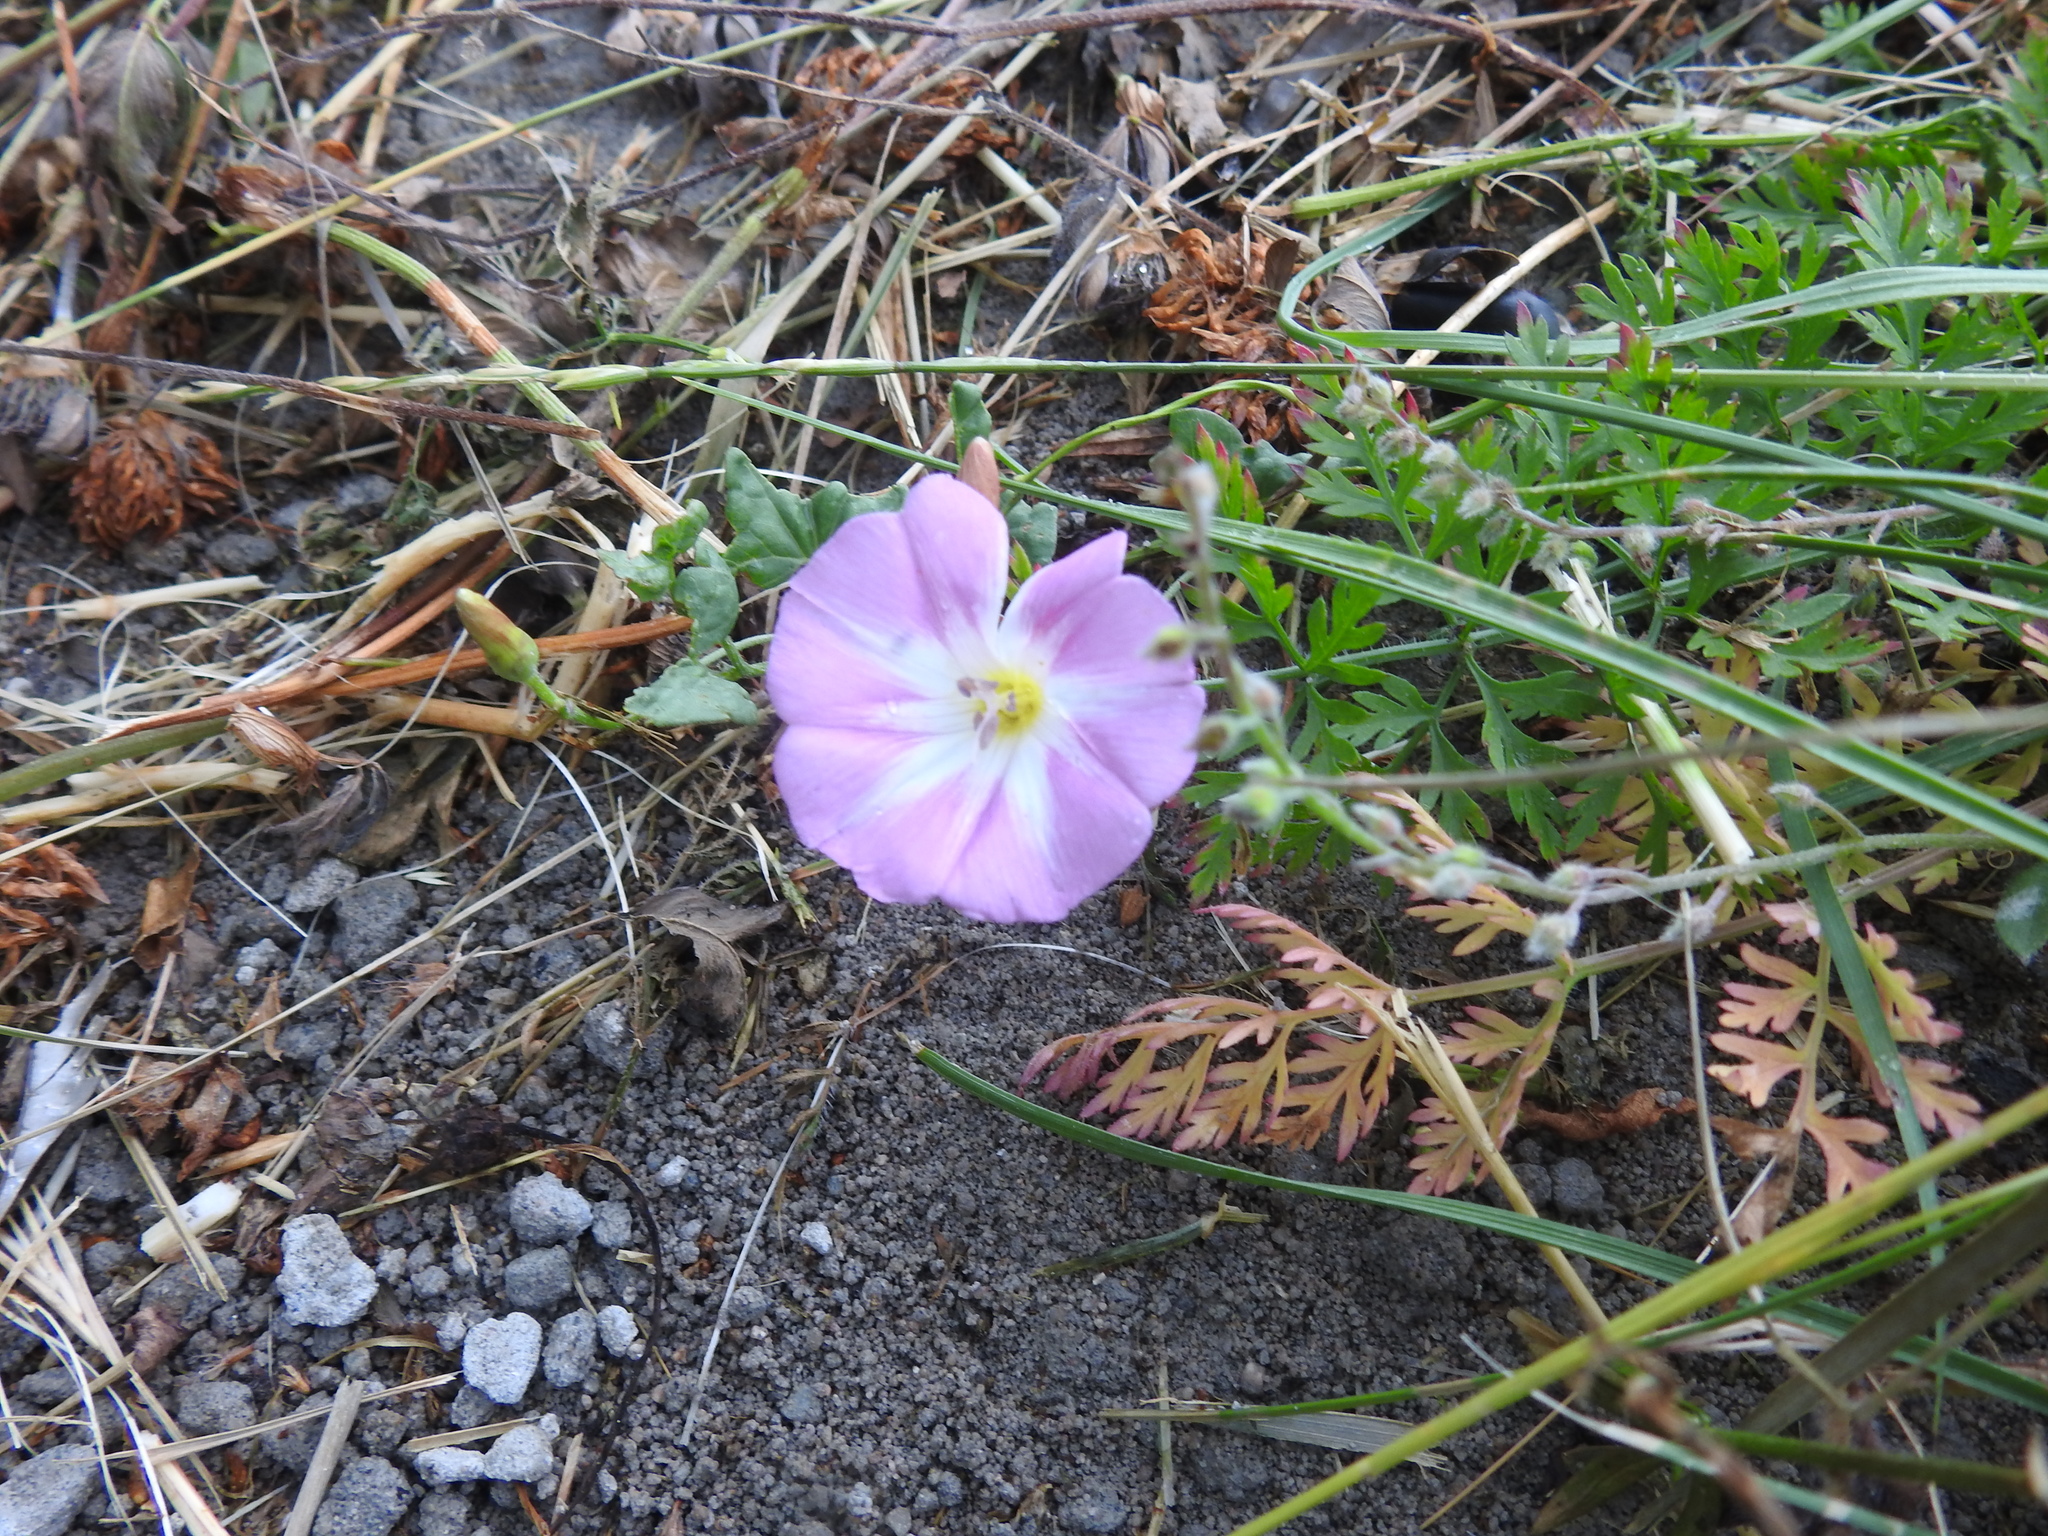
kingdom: Plantae
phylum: Tracheophyta
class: Magnoliopsida
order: Solanales
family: Convolvulaceae
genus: Convolvulus
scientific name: Convolvulus arvensis
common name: Field bindweed
